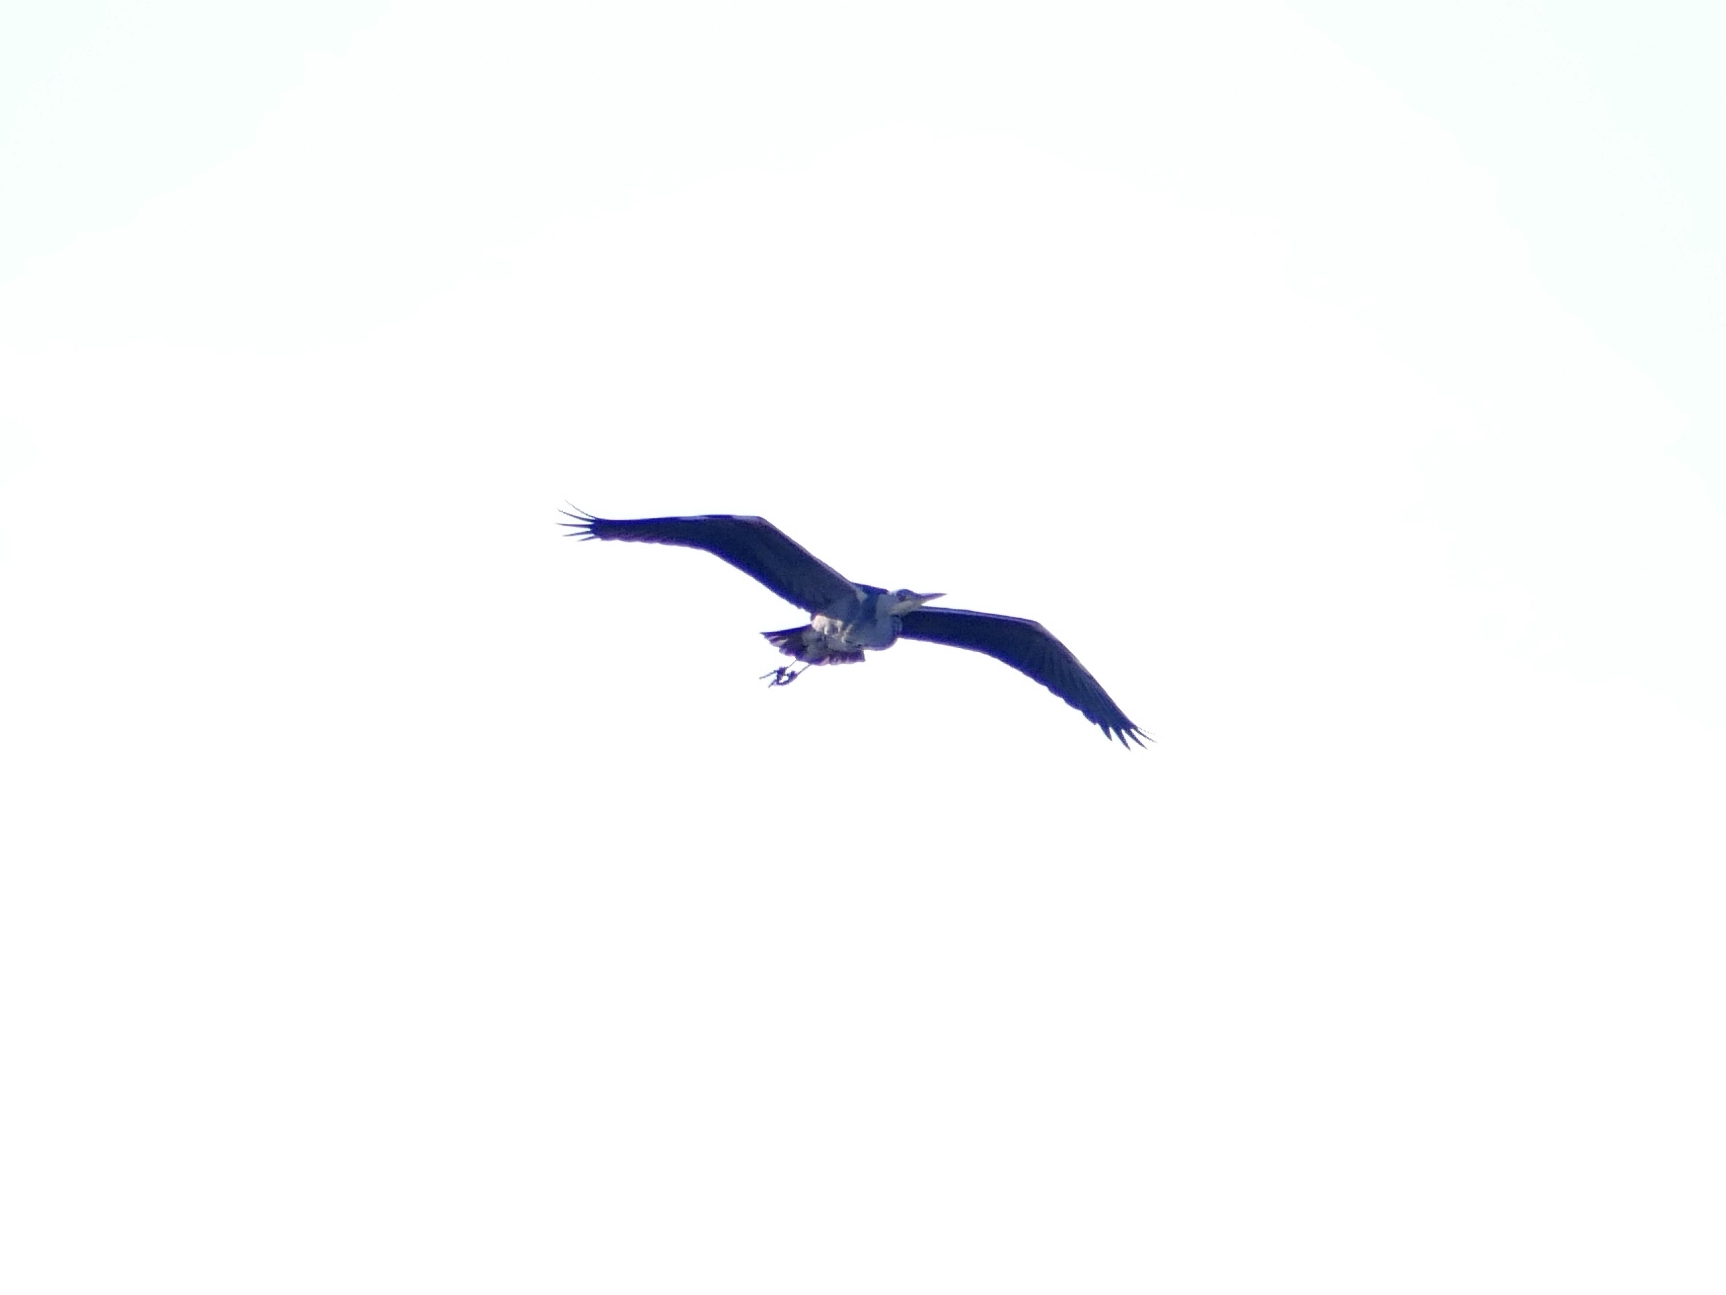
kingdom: Animalia
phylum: Chordata
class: Aves
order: Pelecaniformes
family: Ardeidae
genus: Ardea
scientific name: Ardea cinerea
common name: Grey heron
